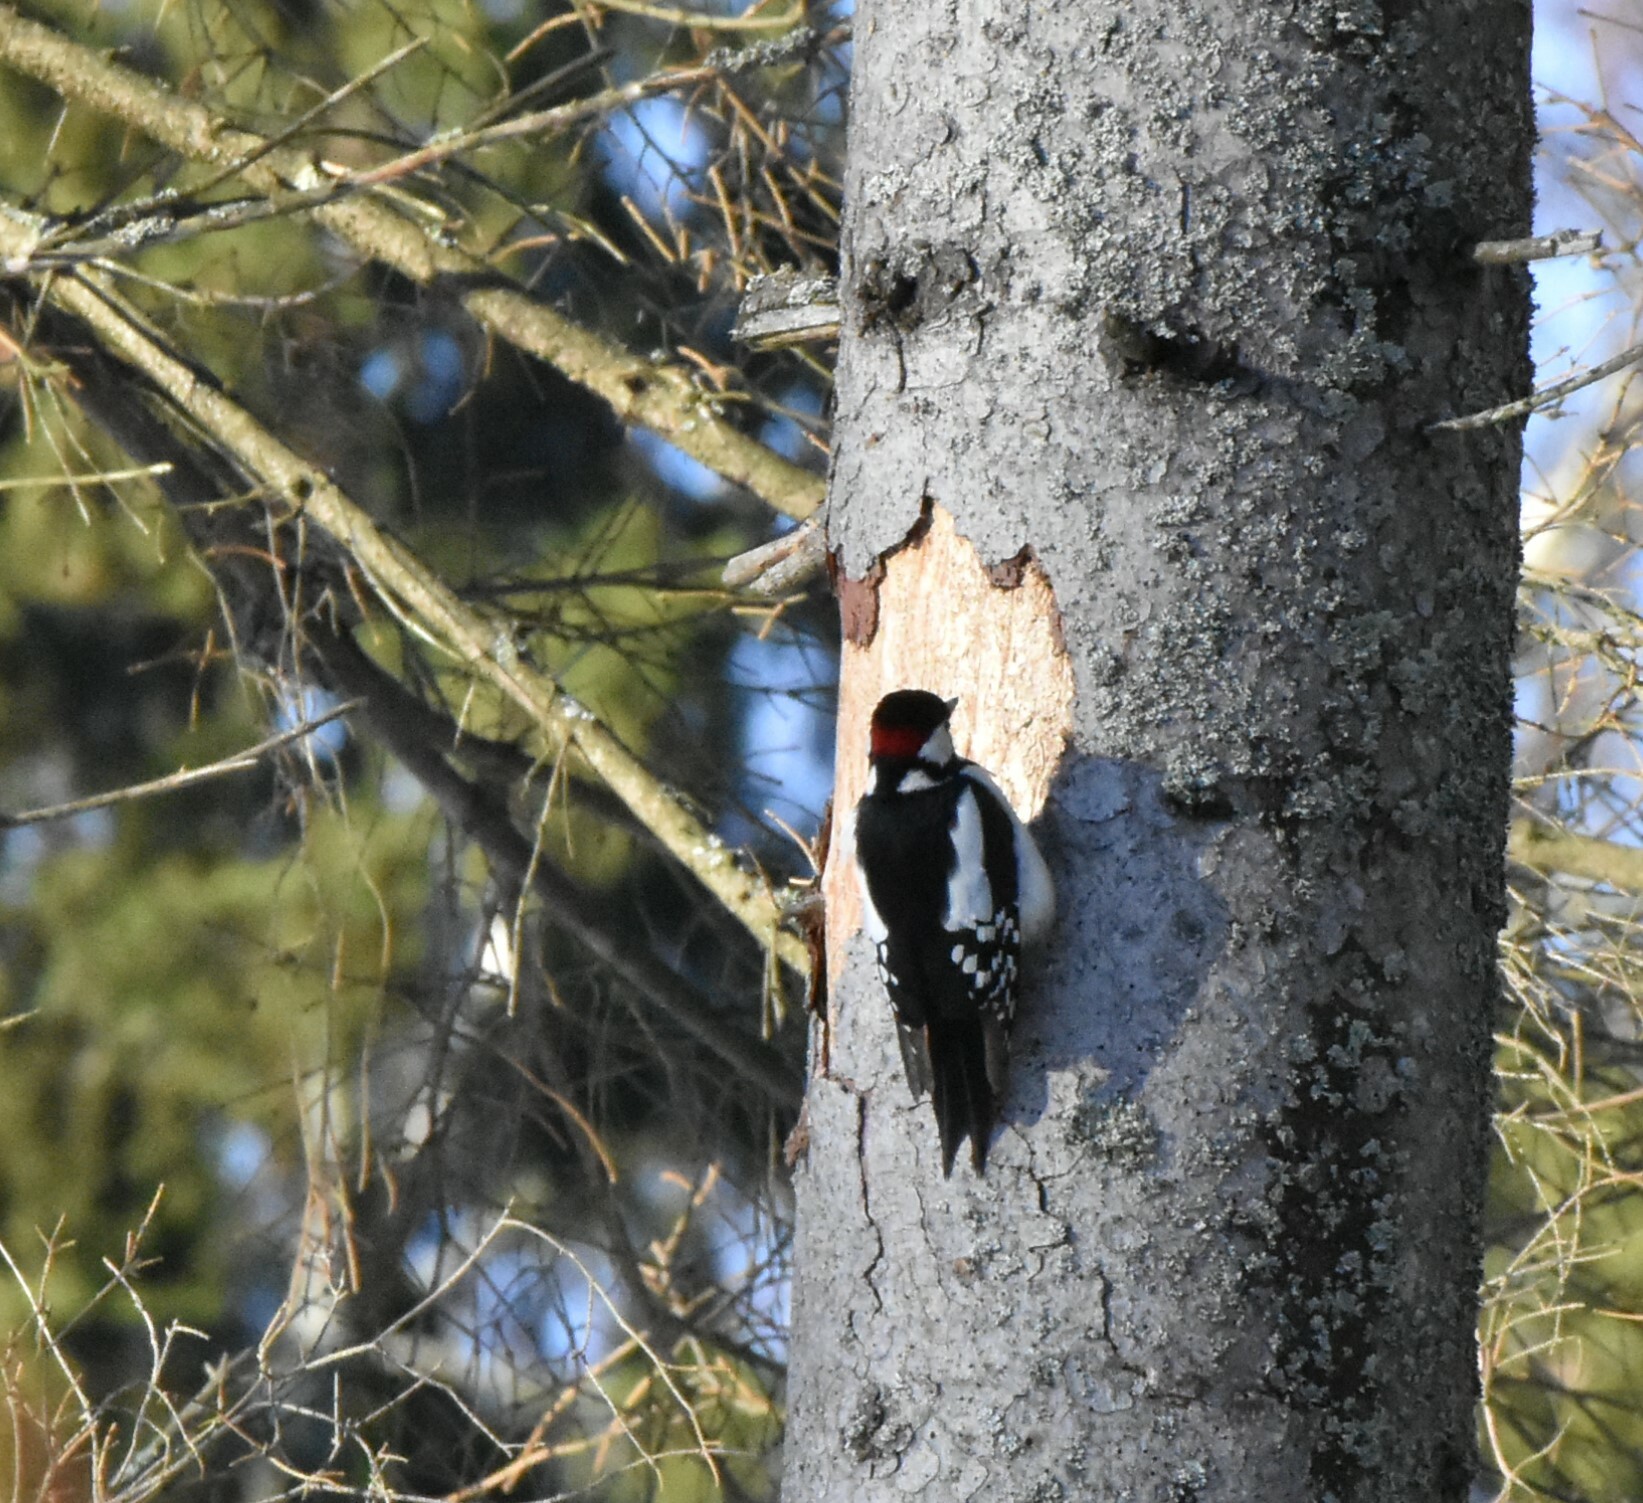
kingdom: Animalia
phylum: Chordata
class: Aves
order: Piciformes
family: Picidae
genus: Dendrocopos
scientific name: Dendrocopos major
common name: Great spotted woodpecker
